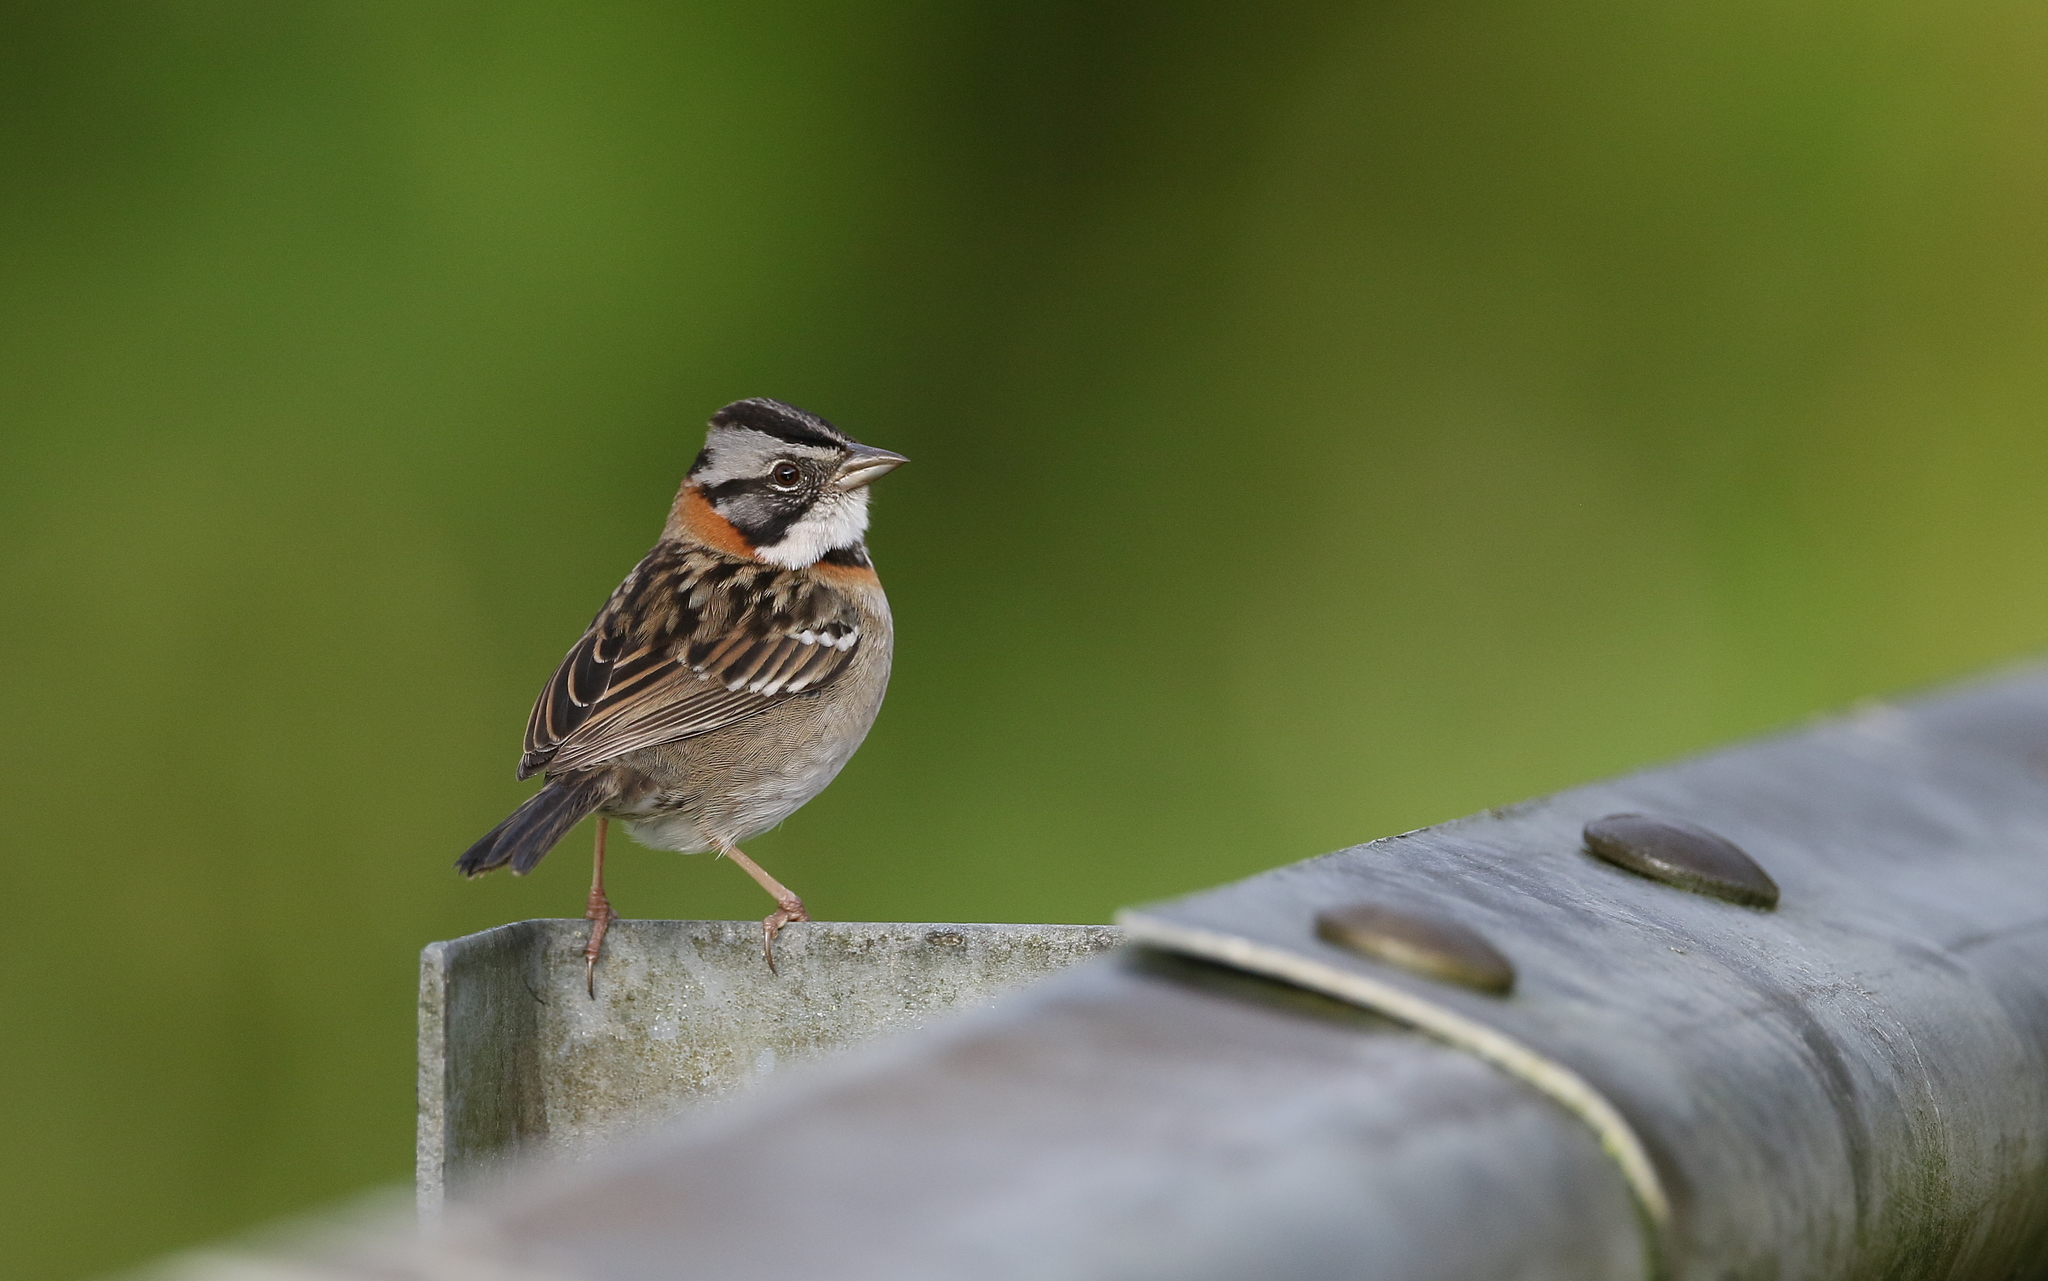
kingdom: Animalia
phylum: Chordata
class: Aves
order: Passeriformes
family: Passerellidae
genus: Zonotrichia
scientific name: Zonotrichia capensis
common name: Rufous-collared sparrow
